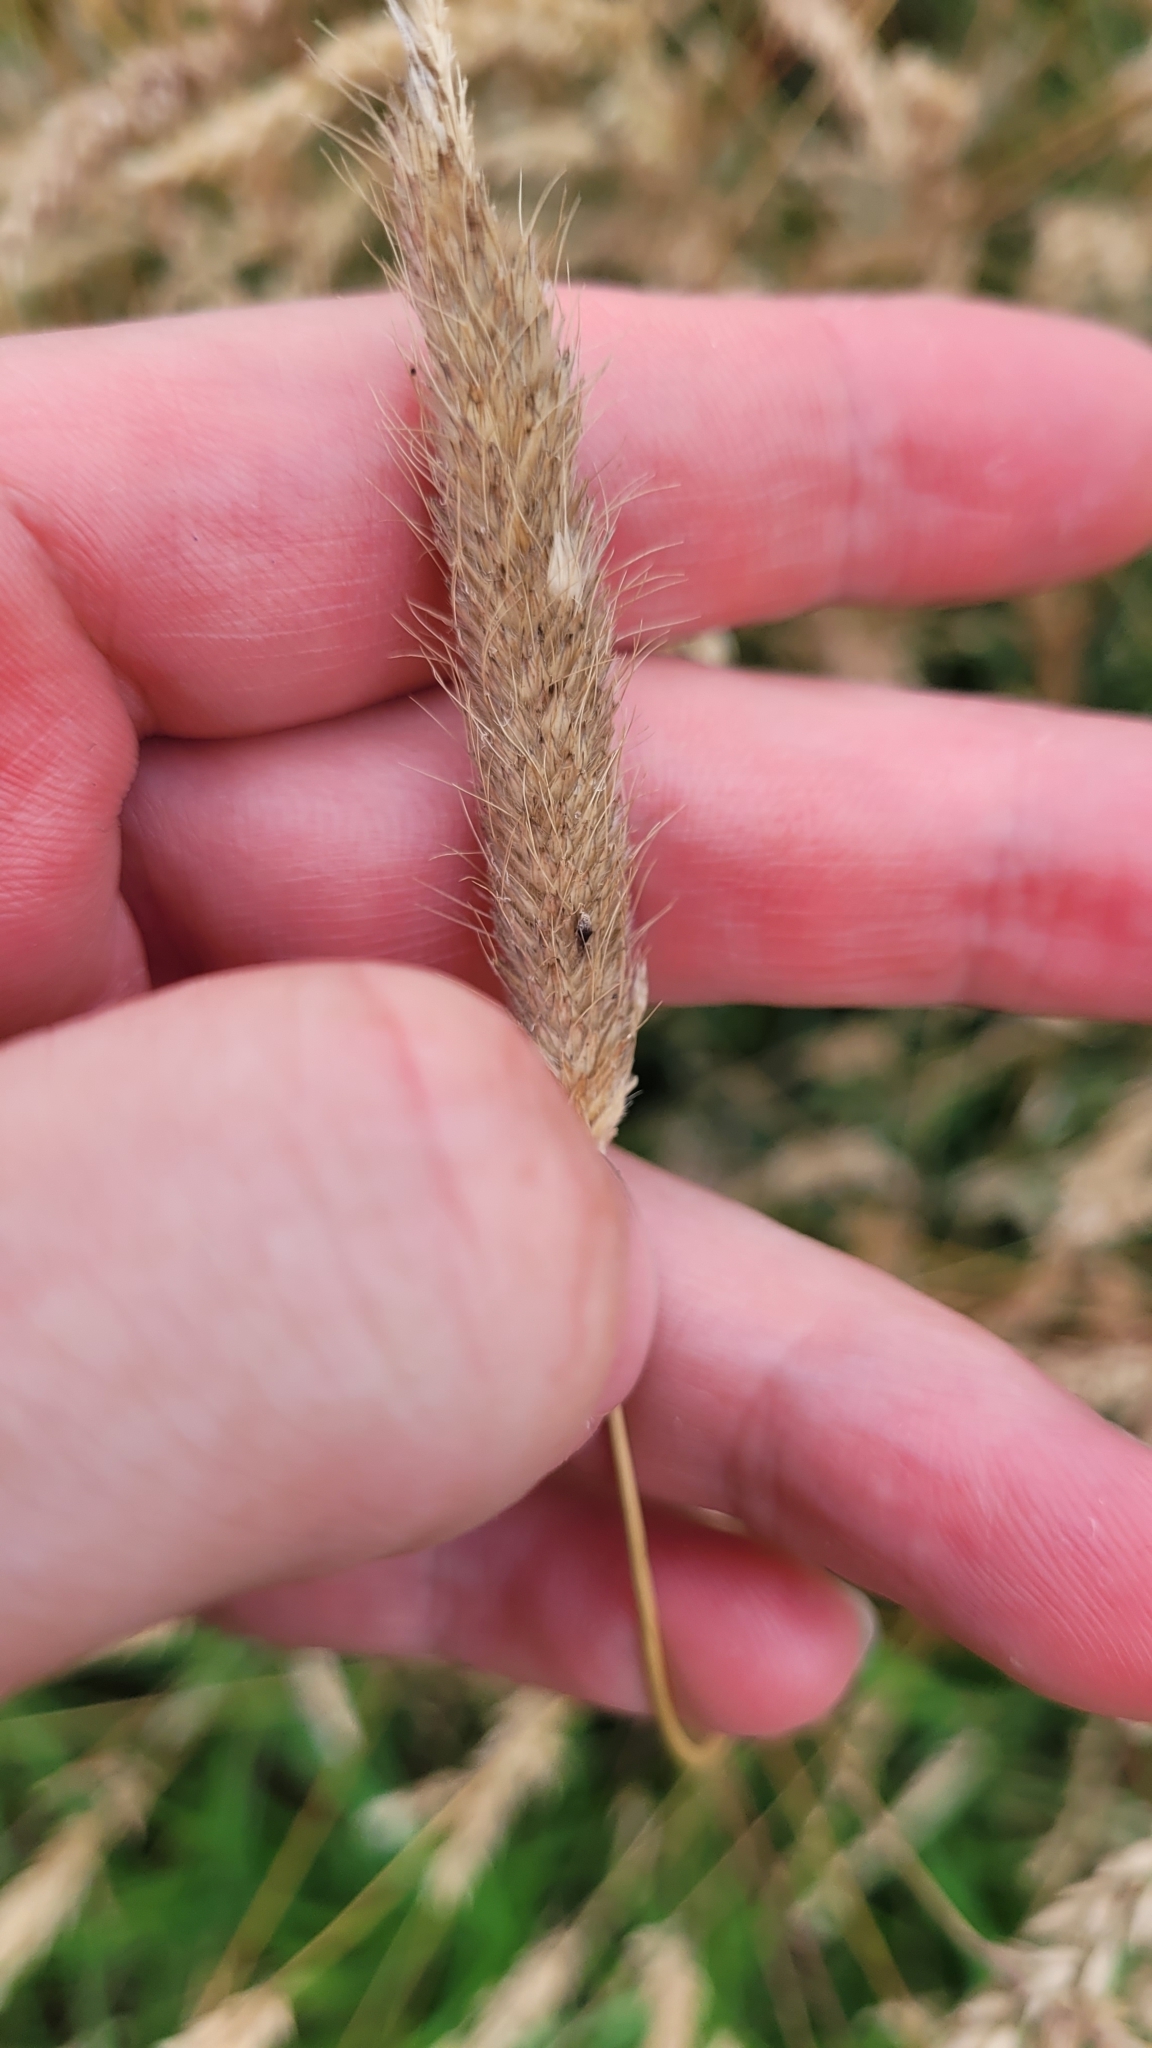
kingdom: Plantae
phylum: Tracheophyta
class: Liliopsida
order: Poales
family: Poaceae
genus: Alopecurus
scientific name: Alopecurus pratensis
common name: Meadow foxtail
